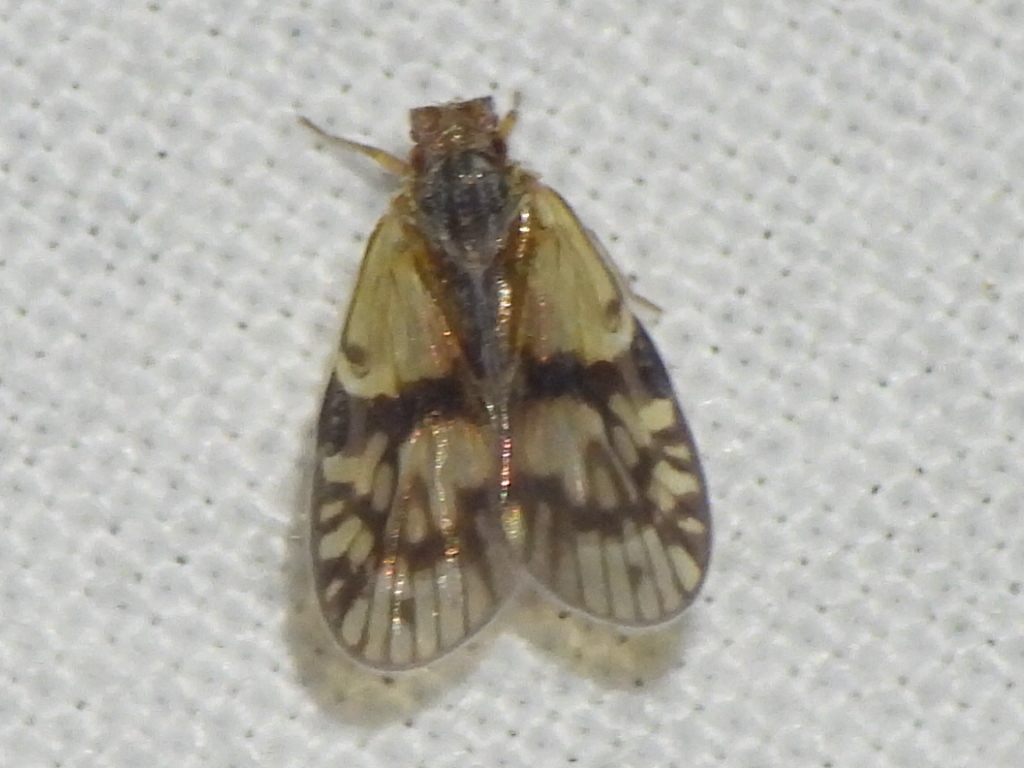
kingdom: Animalia
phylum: Arthropoda
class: Insecta
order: Hemiptera
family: Cixiidae
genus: Bothriocera
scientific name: Bothriocera datuna
